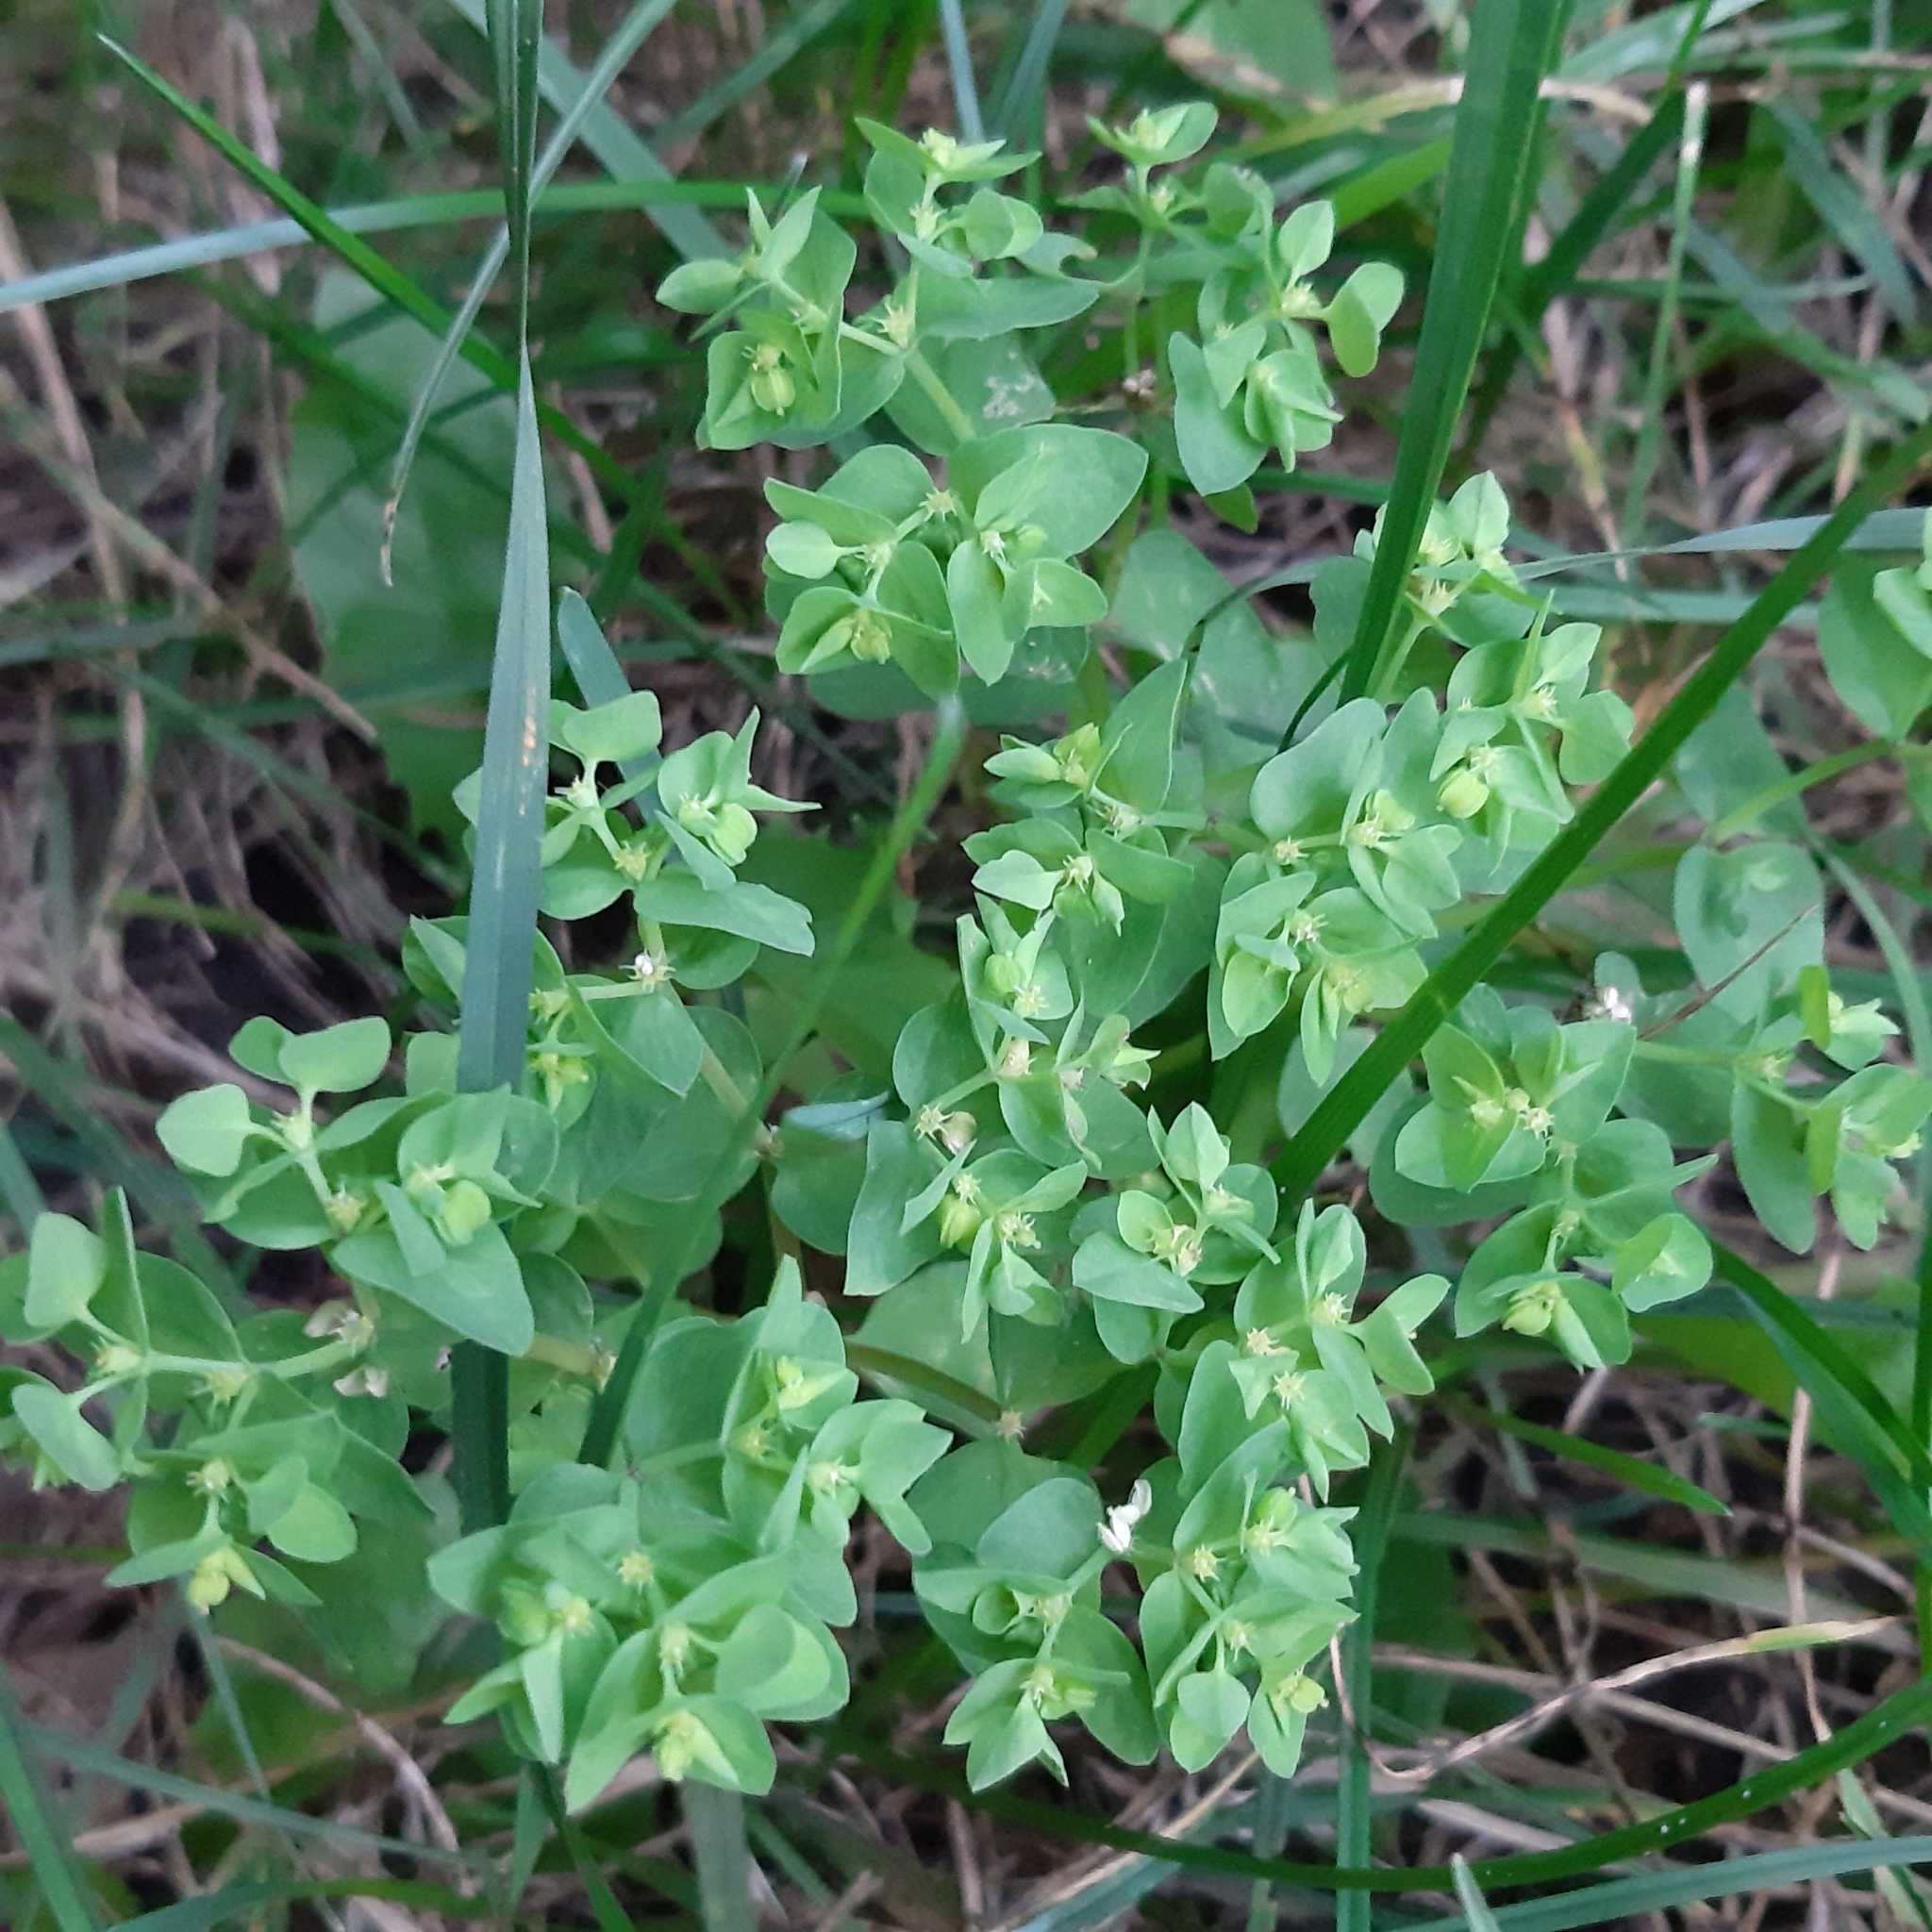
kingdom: Plantae
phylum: Tracheophyta
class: Magnoliopsida
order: Malpighiales
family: Euphorbiaceae
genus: Euphorbia
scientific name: Euphorbia peplus
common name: Petty spurge
